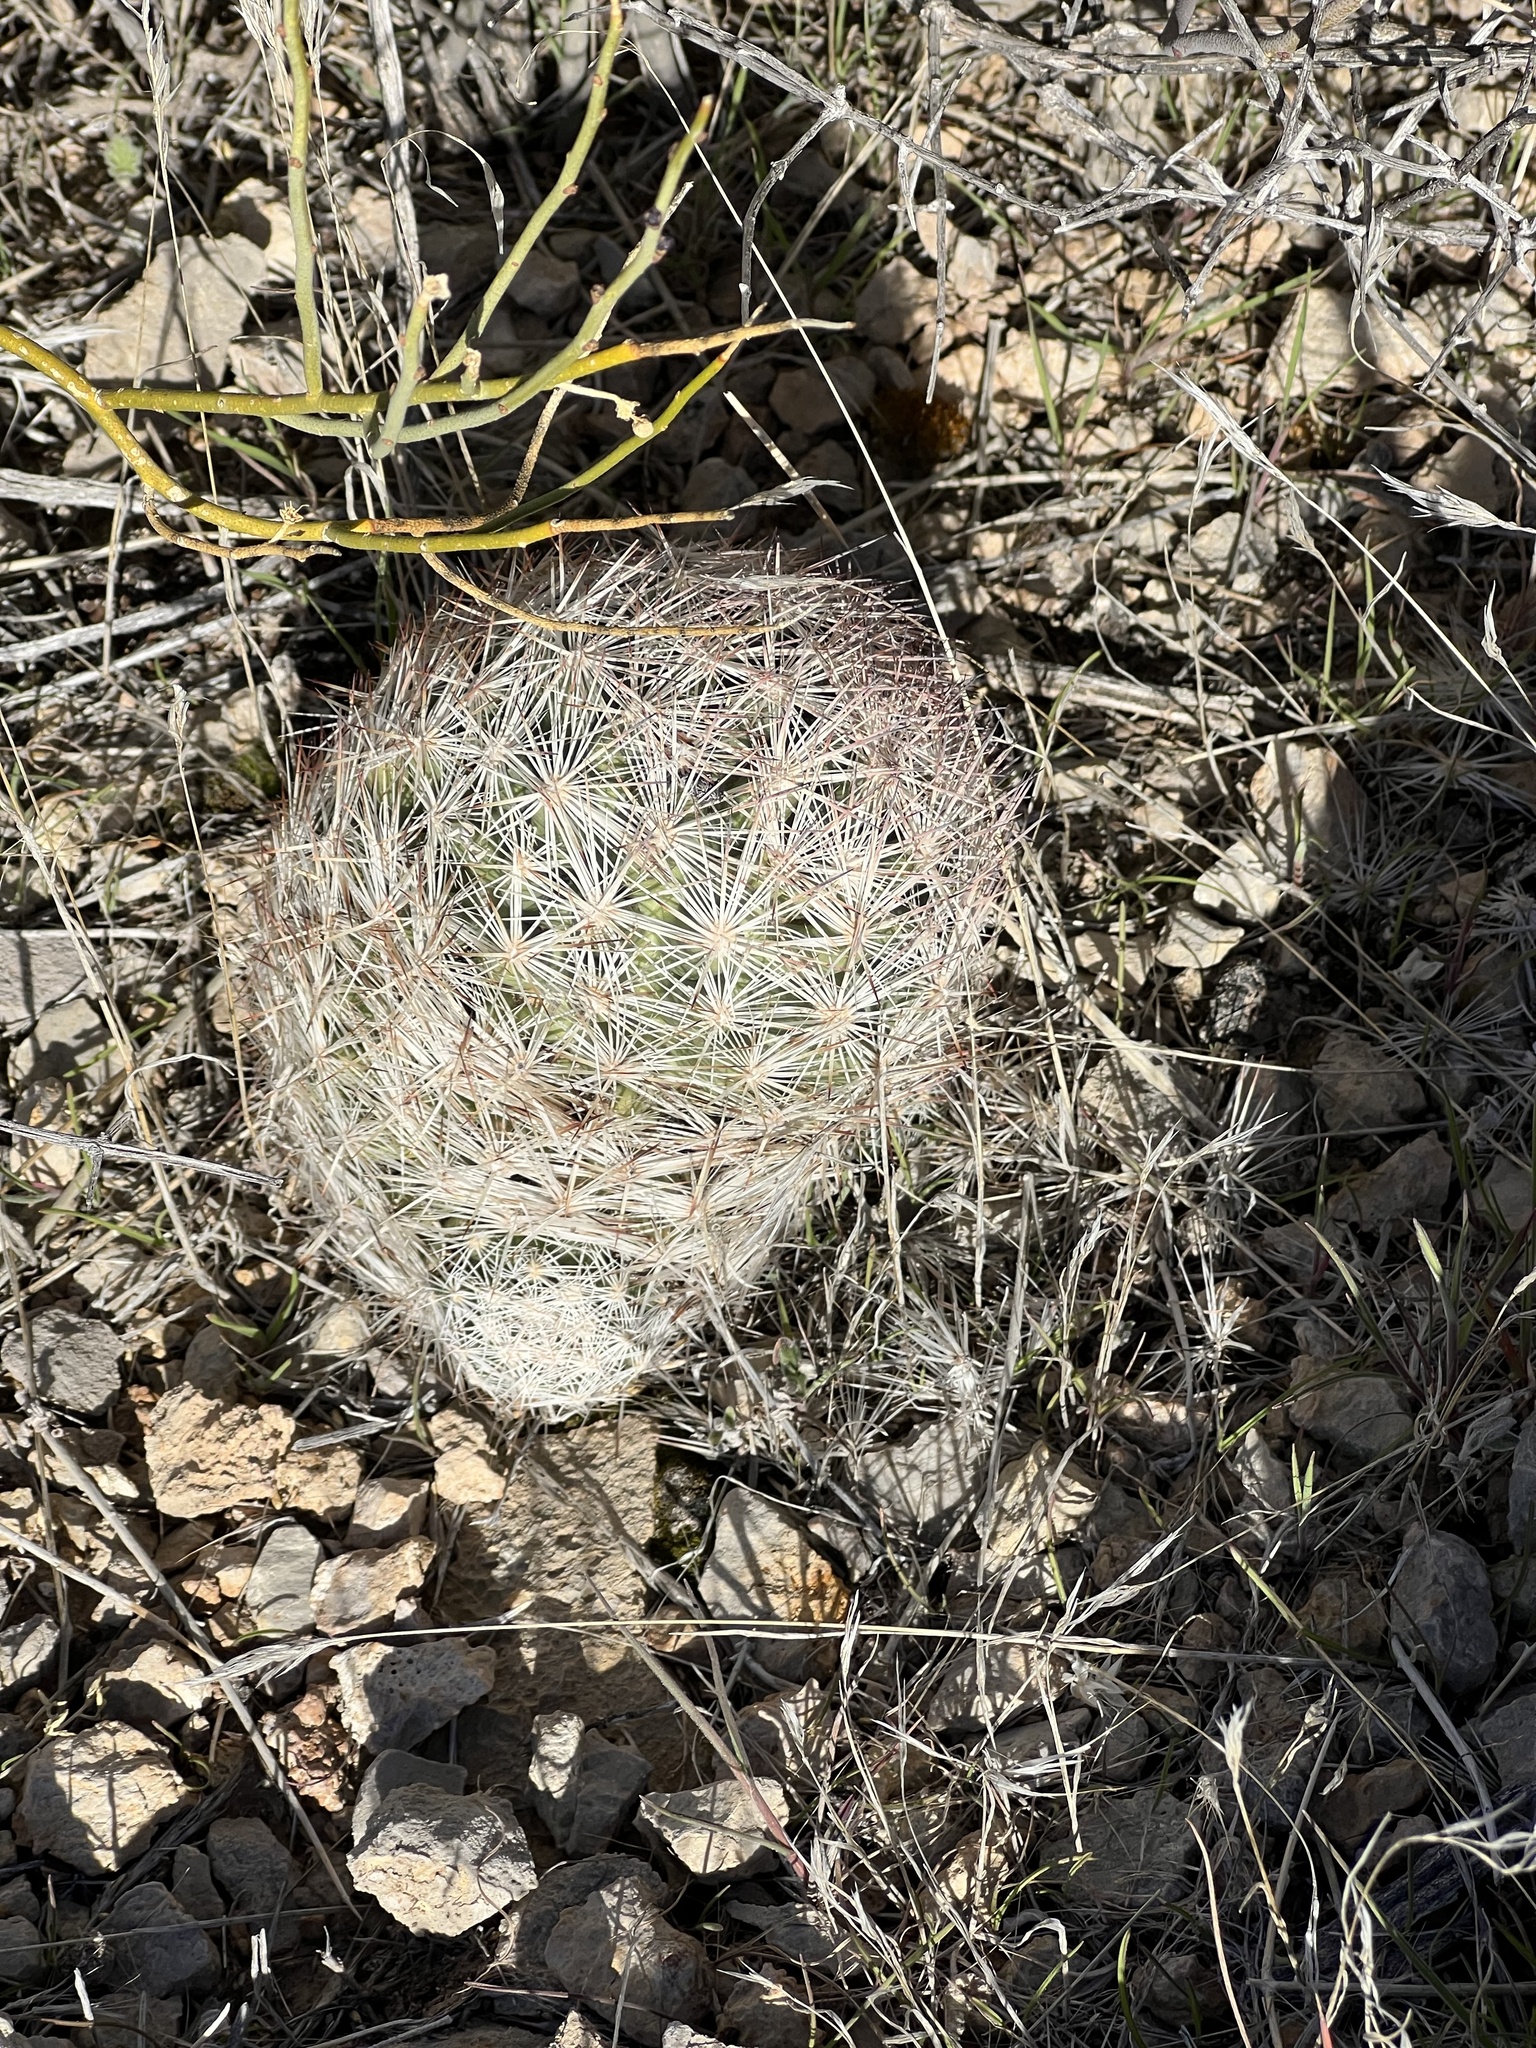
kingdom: Plantae
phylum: Tracheophyta
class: Magnoliopsida
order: Caryophyllales
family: Cactaceae
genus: Pelecyphora
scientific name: Pelecyphora dasyacantha
